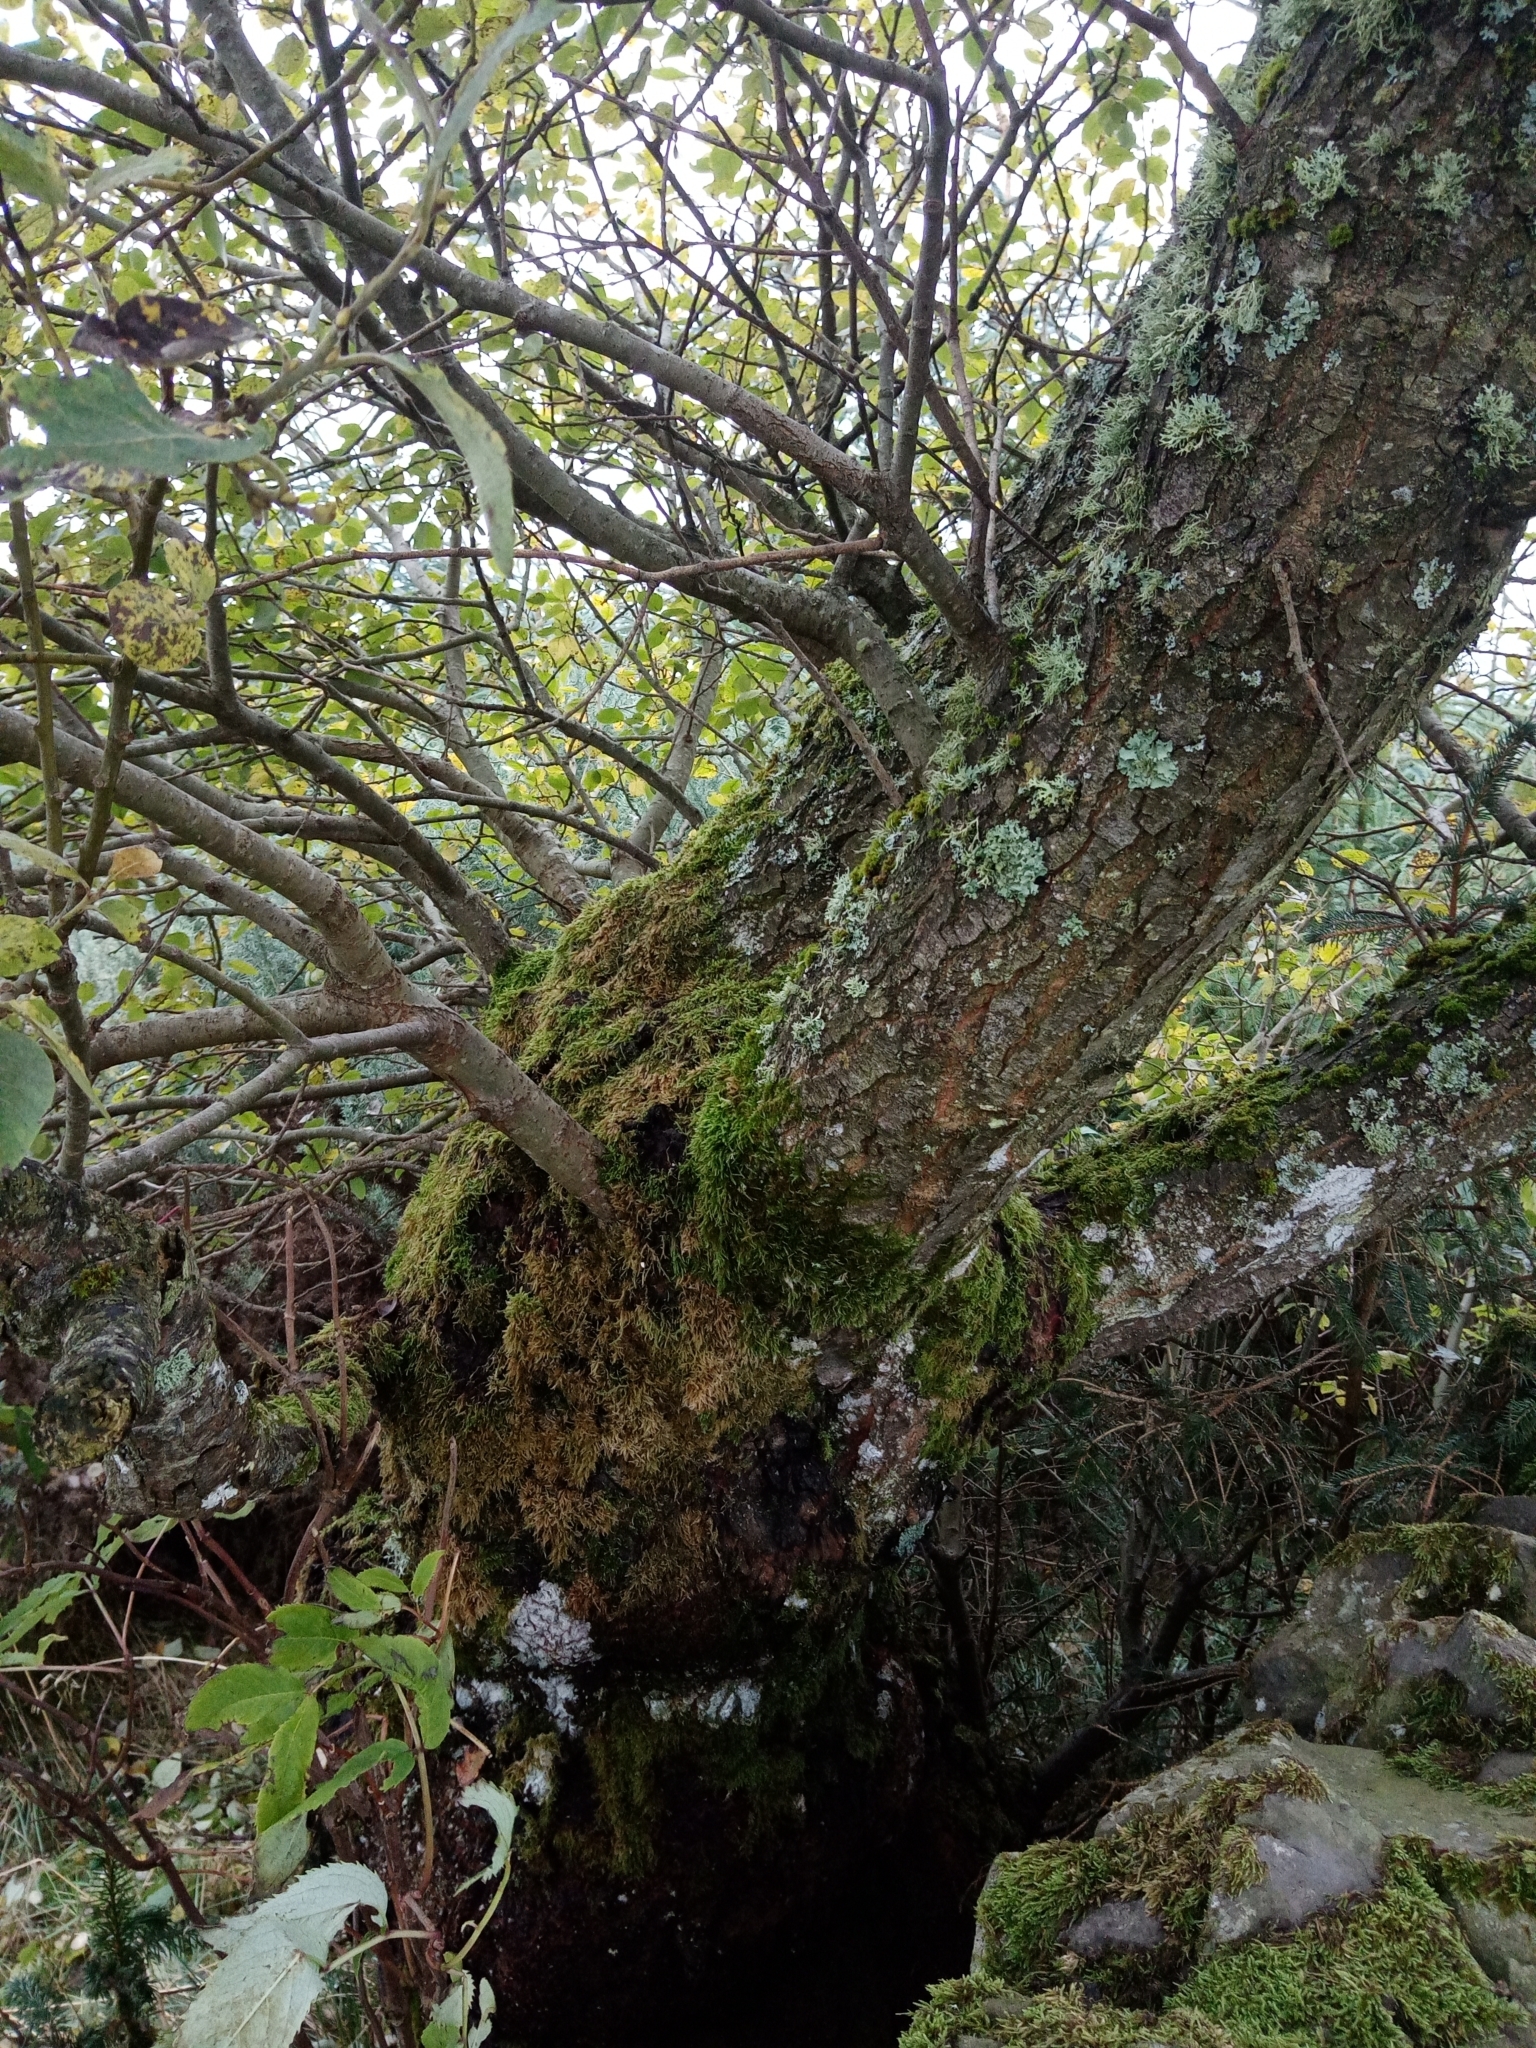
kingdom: Plantae
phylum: Tracheophyta
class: Magnoliopsida
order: Malpighiales
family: Salicaceae
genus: Salix
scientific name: Salix caprea
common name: Goat willow
